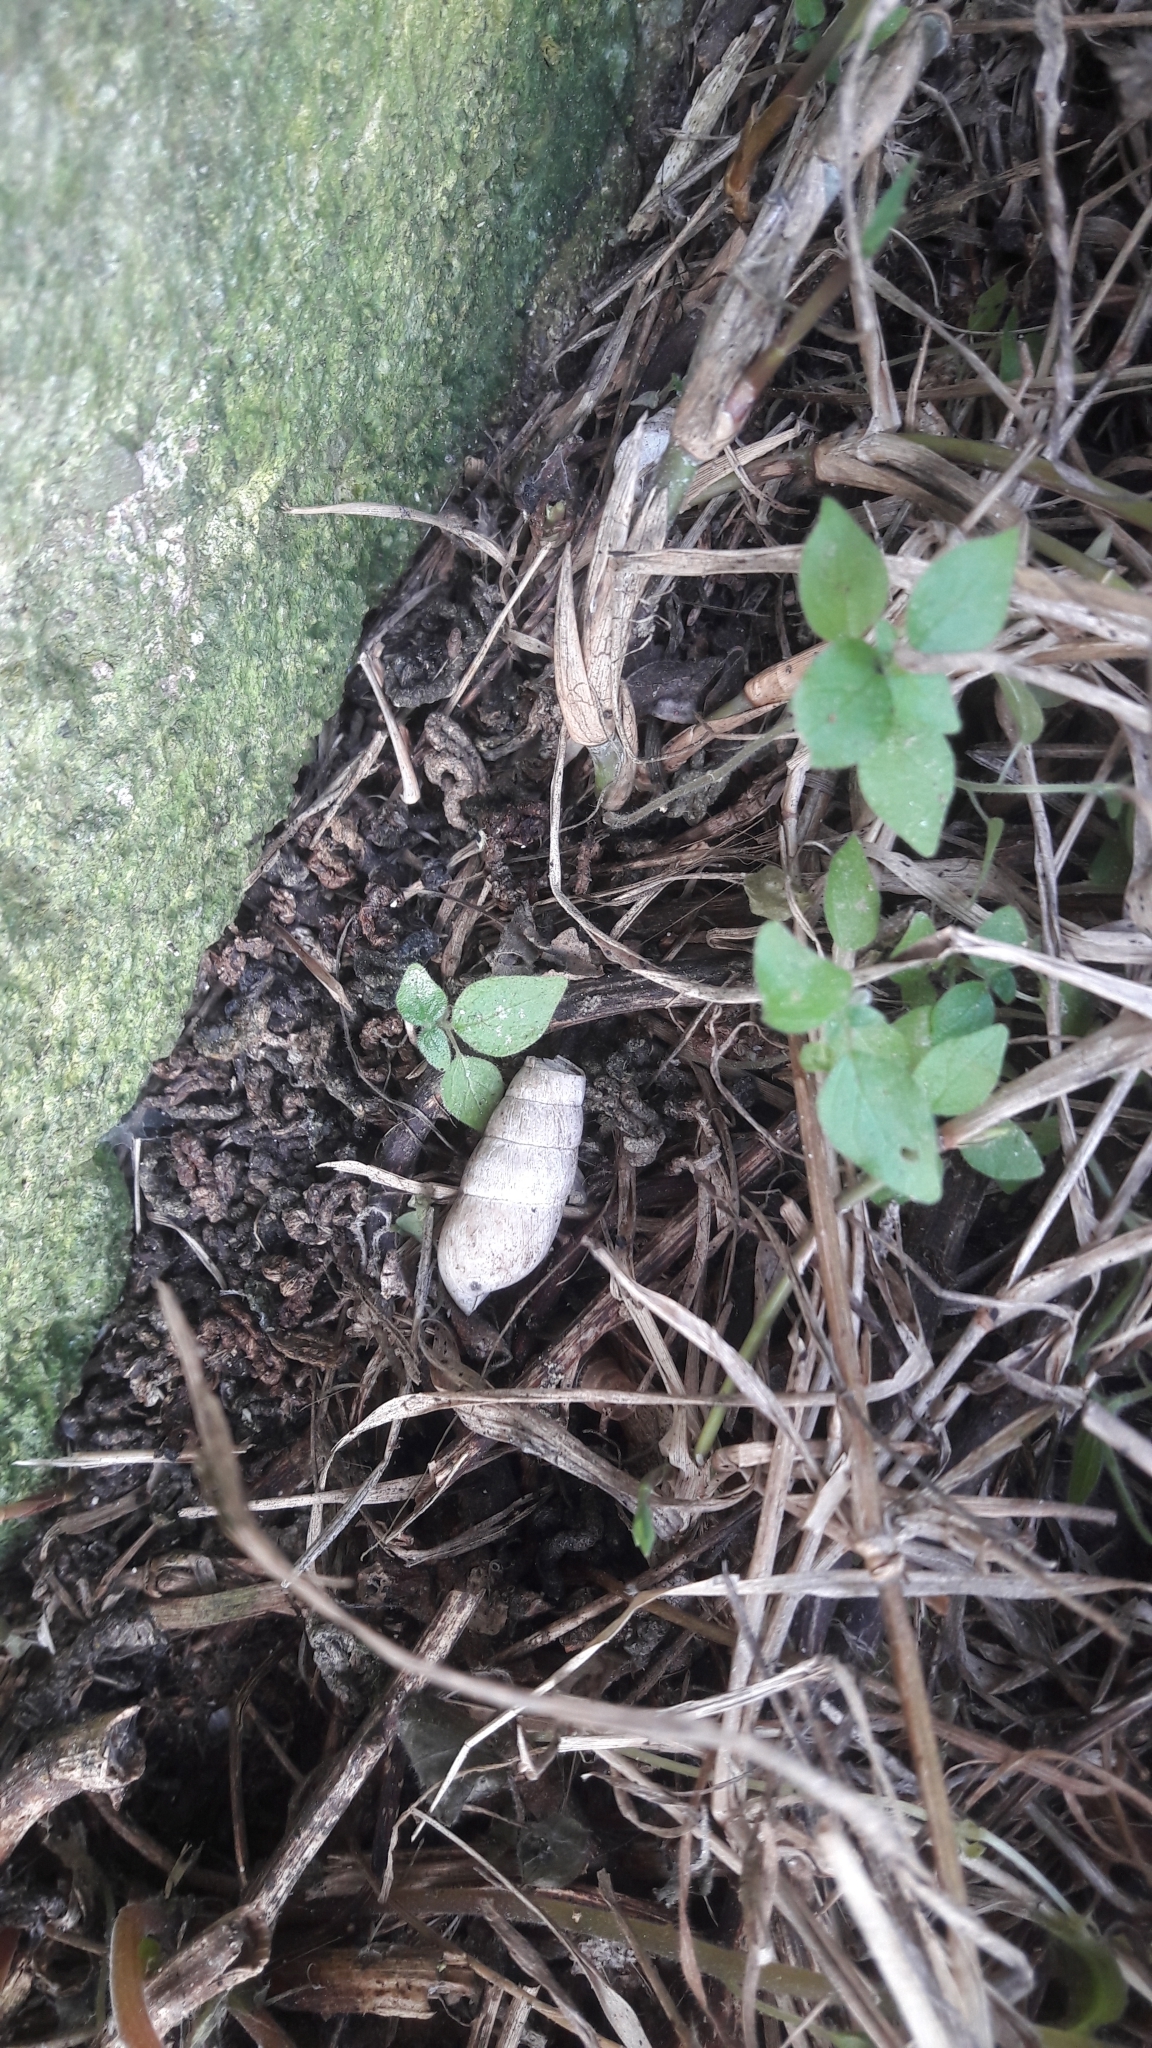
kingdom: Animalia
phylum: Mollusca
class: Gastropoda
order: Stylommatophora
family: Achatinidae
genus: Rumina
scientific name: Rumina decollata
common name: Decollate snail
